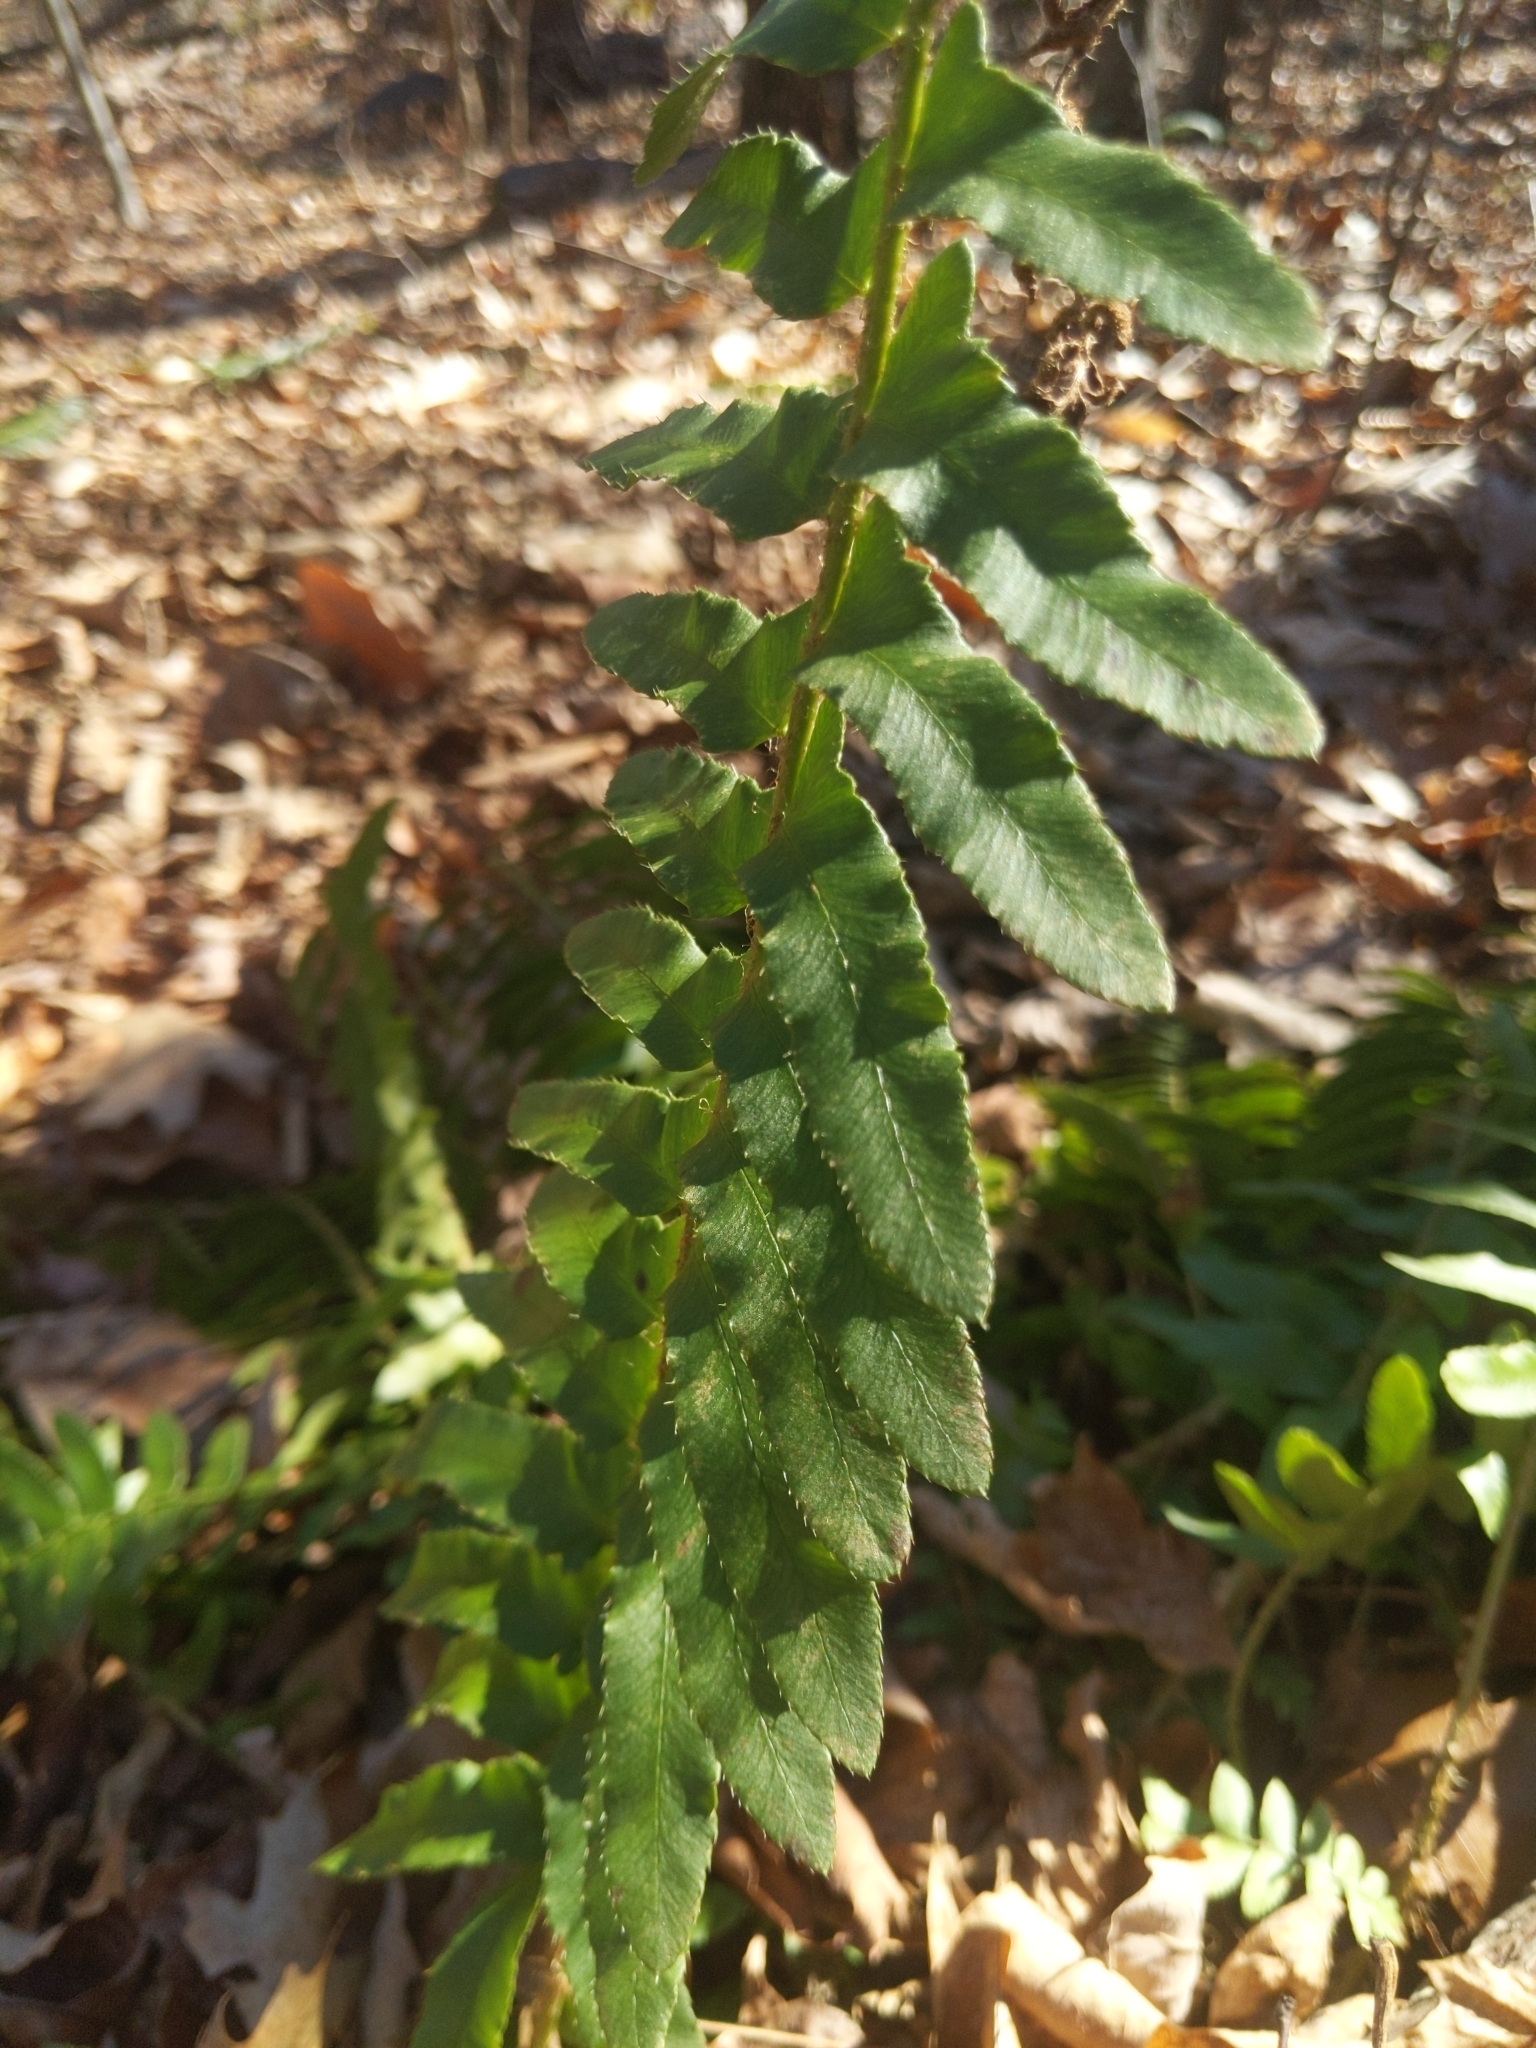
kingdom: Plantae
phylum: Tracheophyta
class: Polypodiopsida
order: Polypodiales
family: Dryopteridaceae
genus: Polystichum
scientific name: Polystichum acrostichoides
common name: Christmas fern
